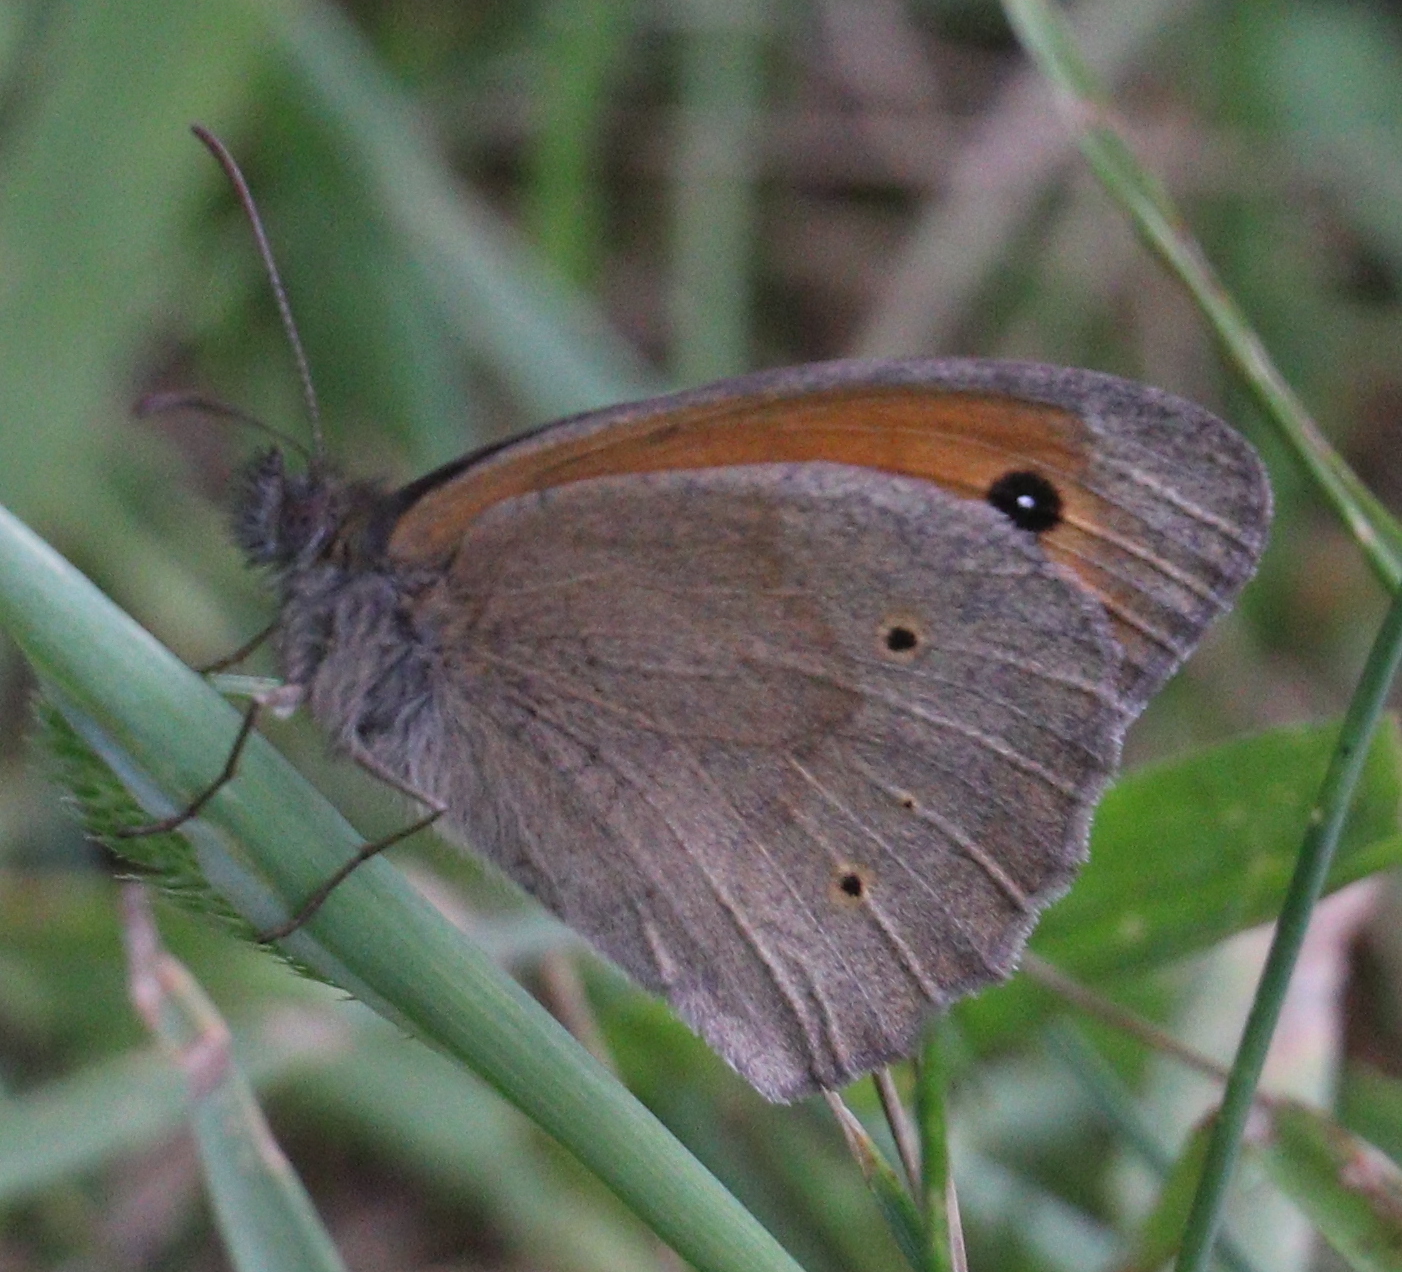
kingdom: Animalia
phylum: Arthropoda
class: Insecta
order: Lepidoptera
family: Nymphalidae
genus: Maniola
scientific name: Maniola jurtina
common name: Meadow brown
